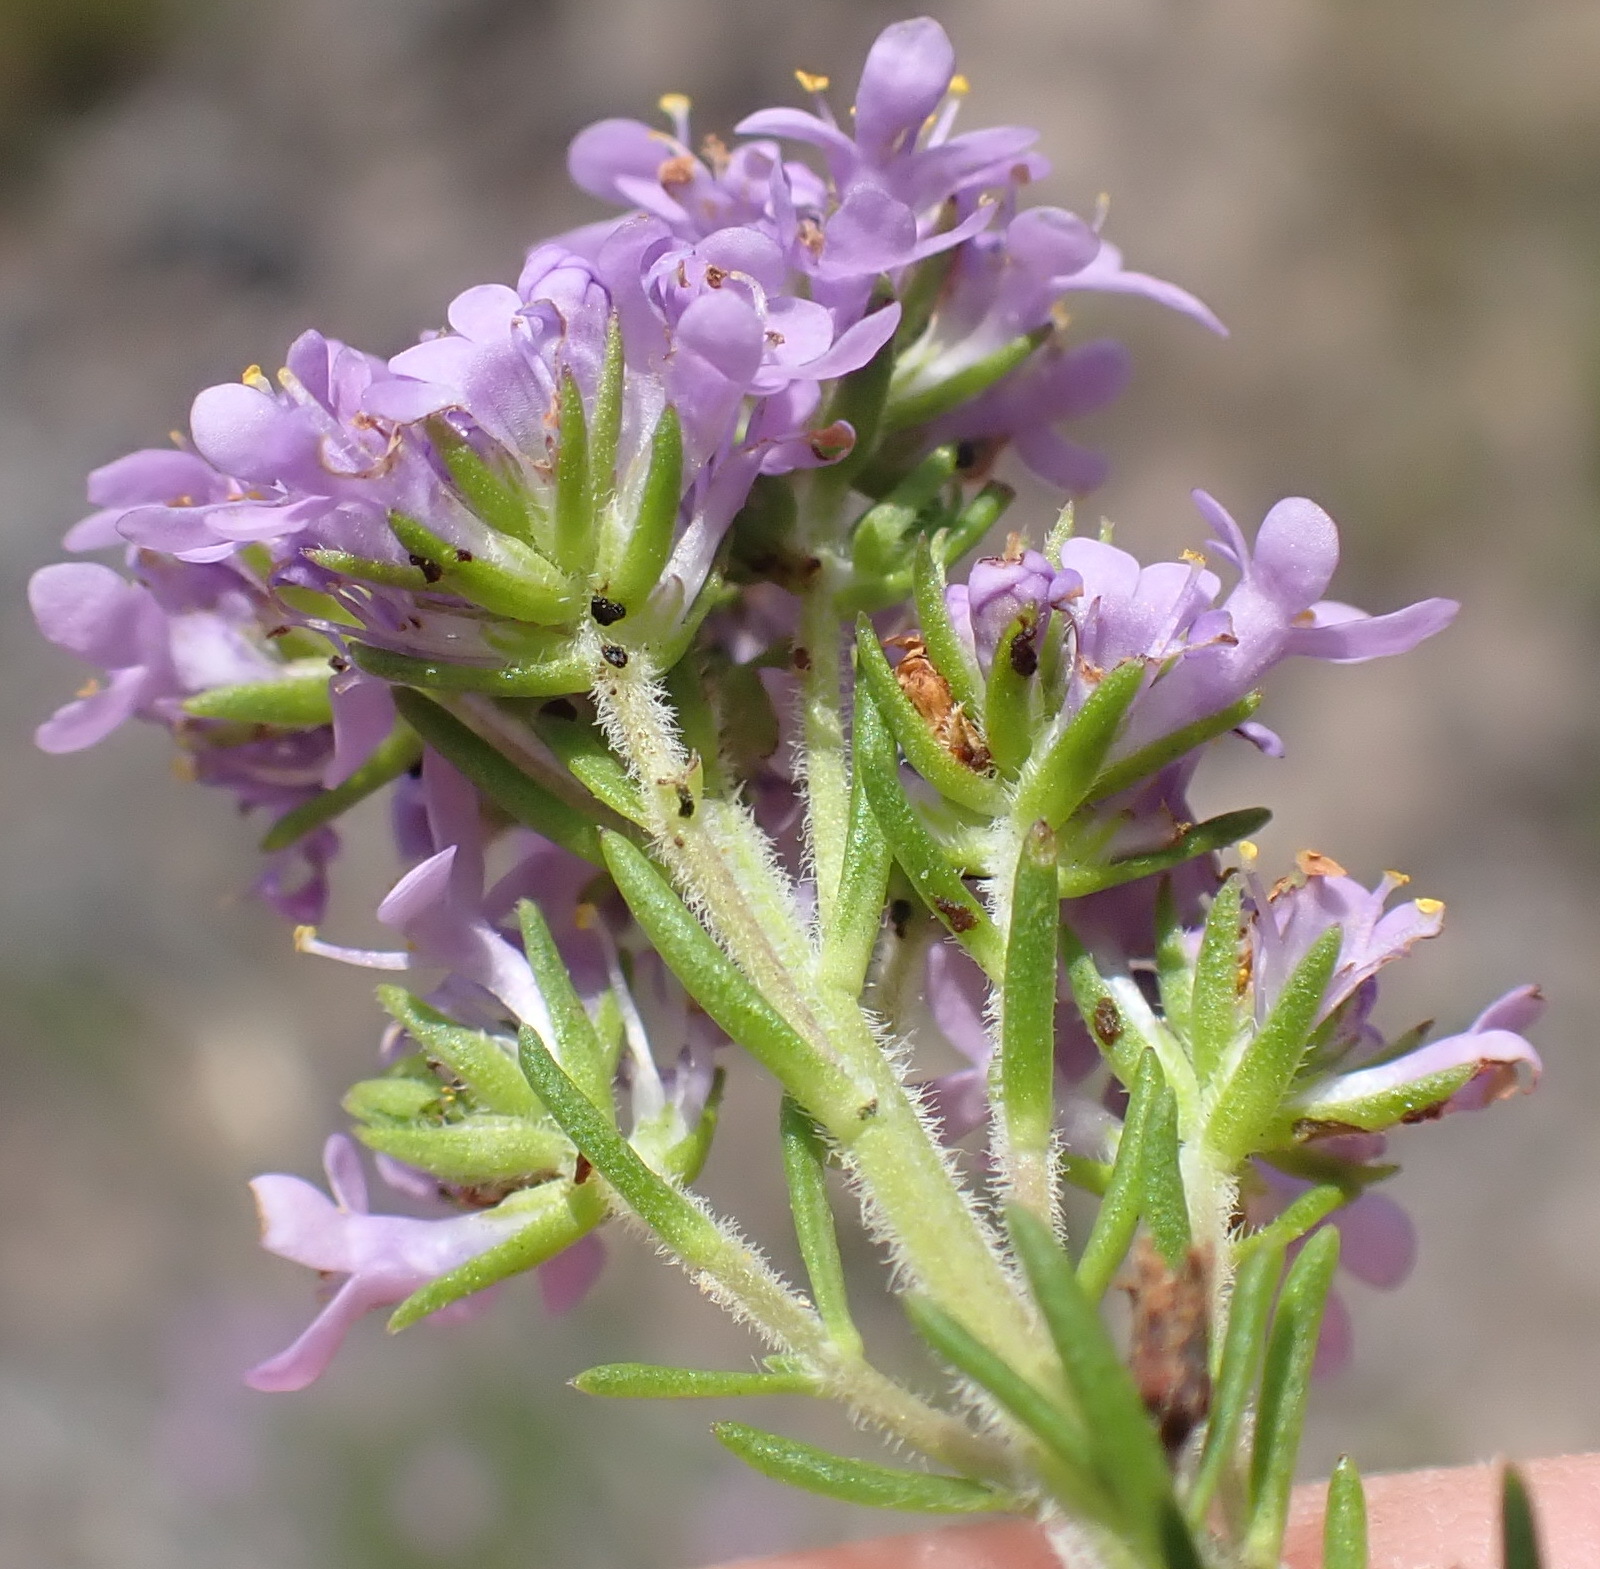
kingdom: Plantae
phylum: Tracheophyta
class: Magnoliopsida
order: Lamiales
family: Scrophulariaceae
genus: Selago
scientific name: Selago villicaulis
